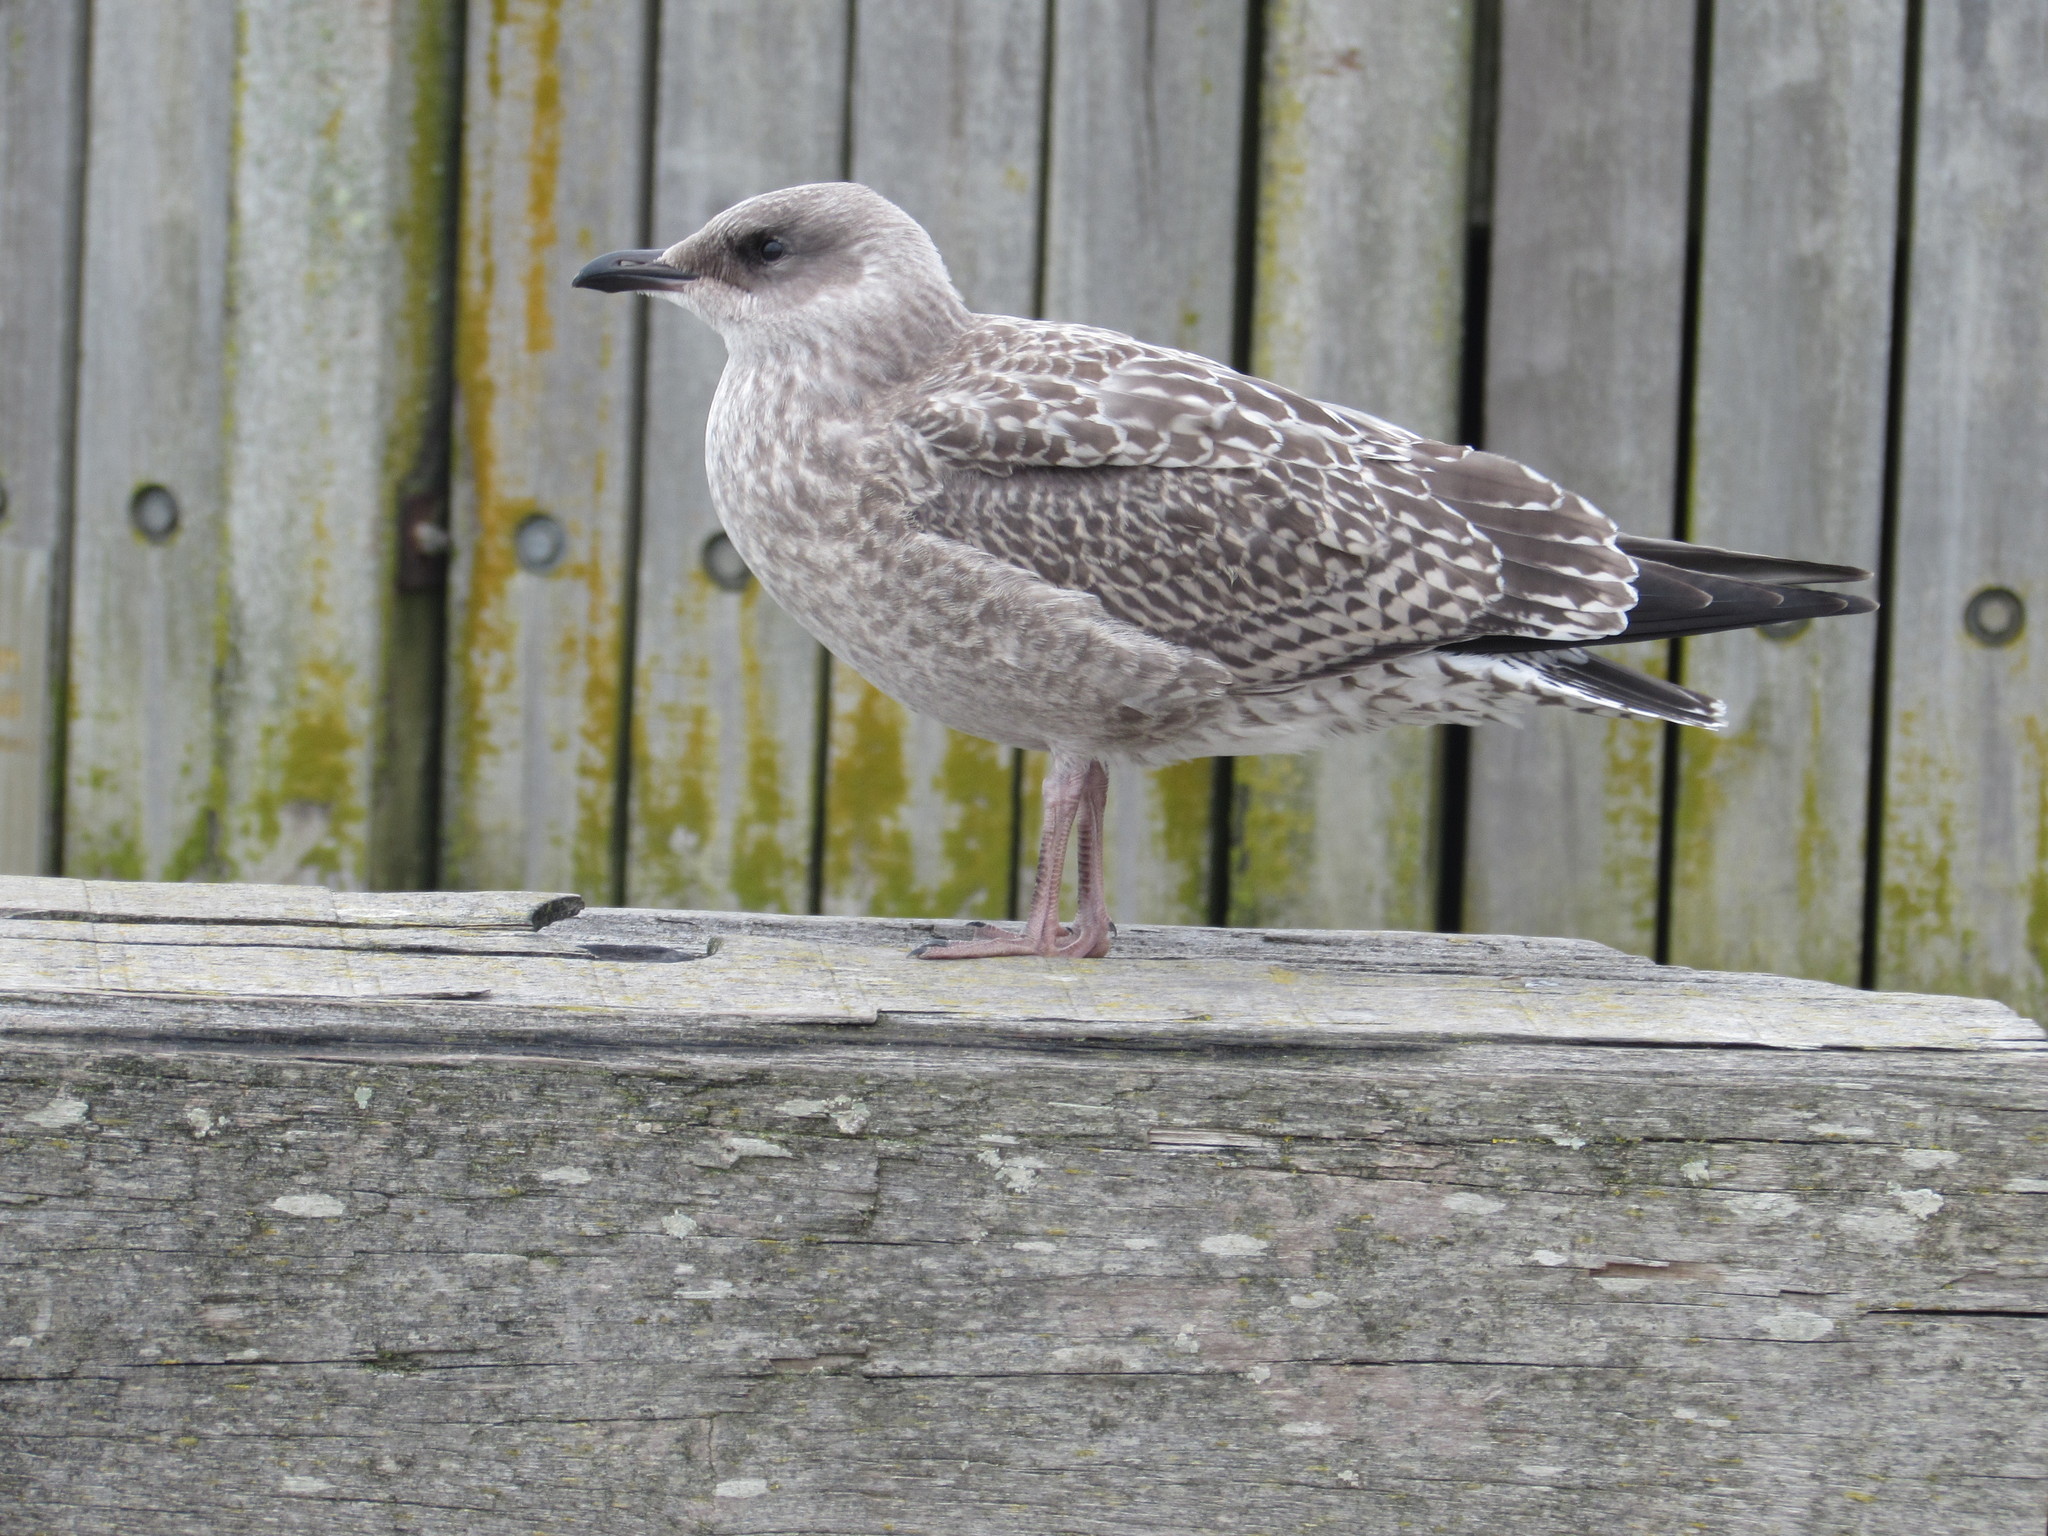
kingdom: Animalia
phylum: Chordata
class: Aves
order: Charadriiformes
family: Laridae
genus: Larus
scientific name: Larus argentatus
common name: Herring gull
